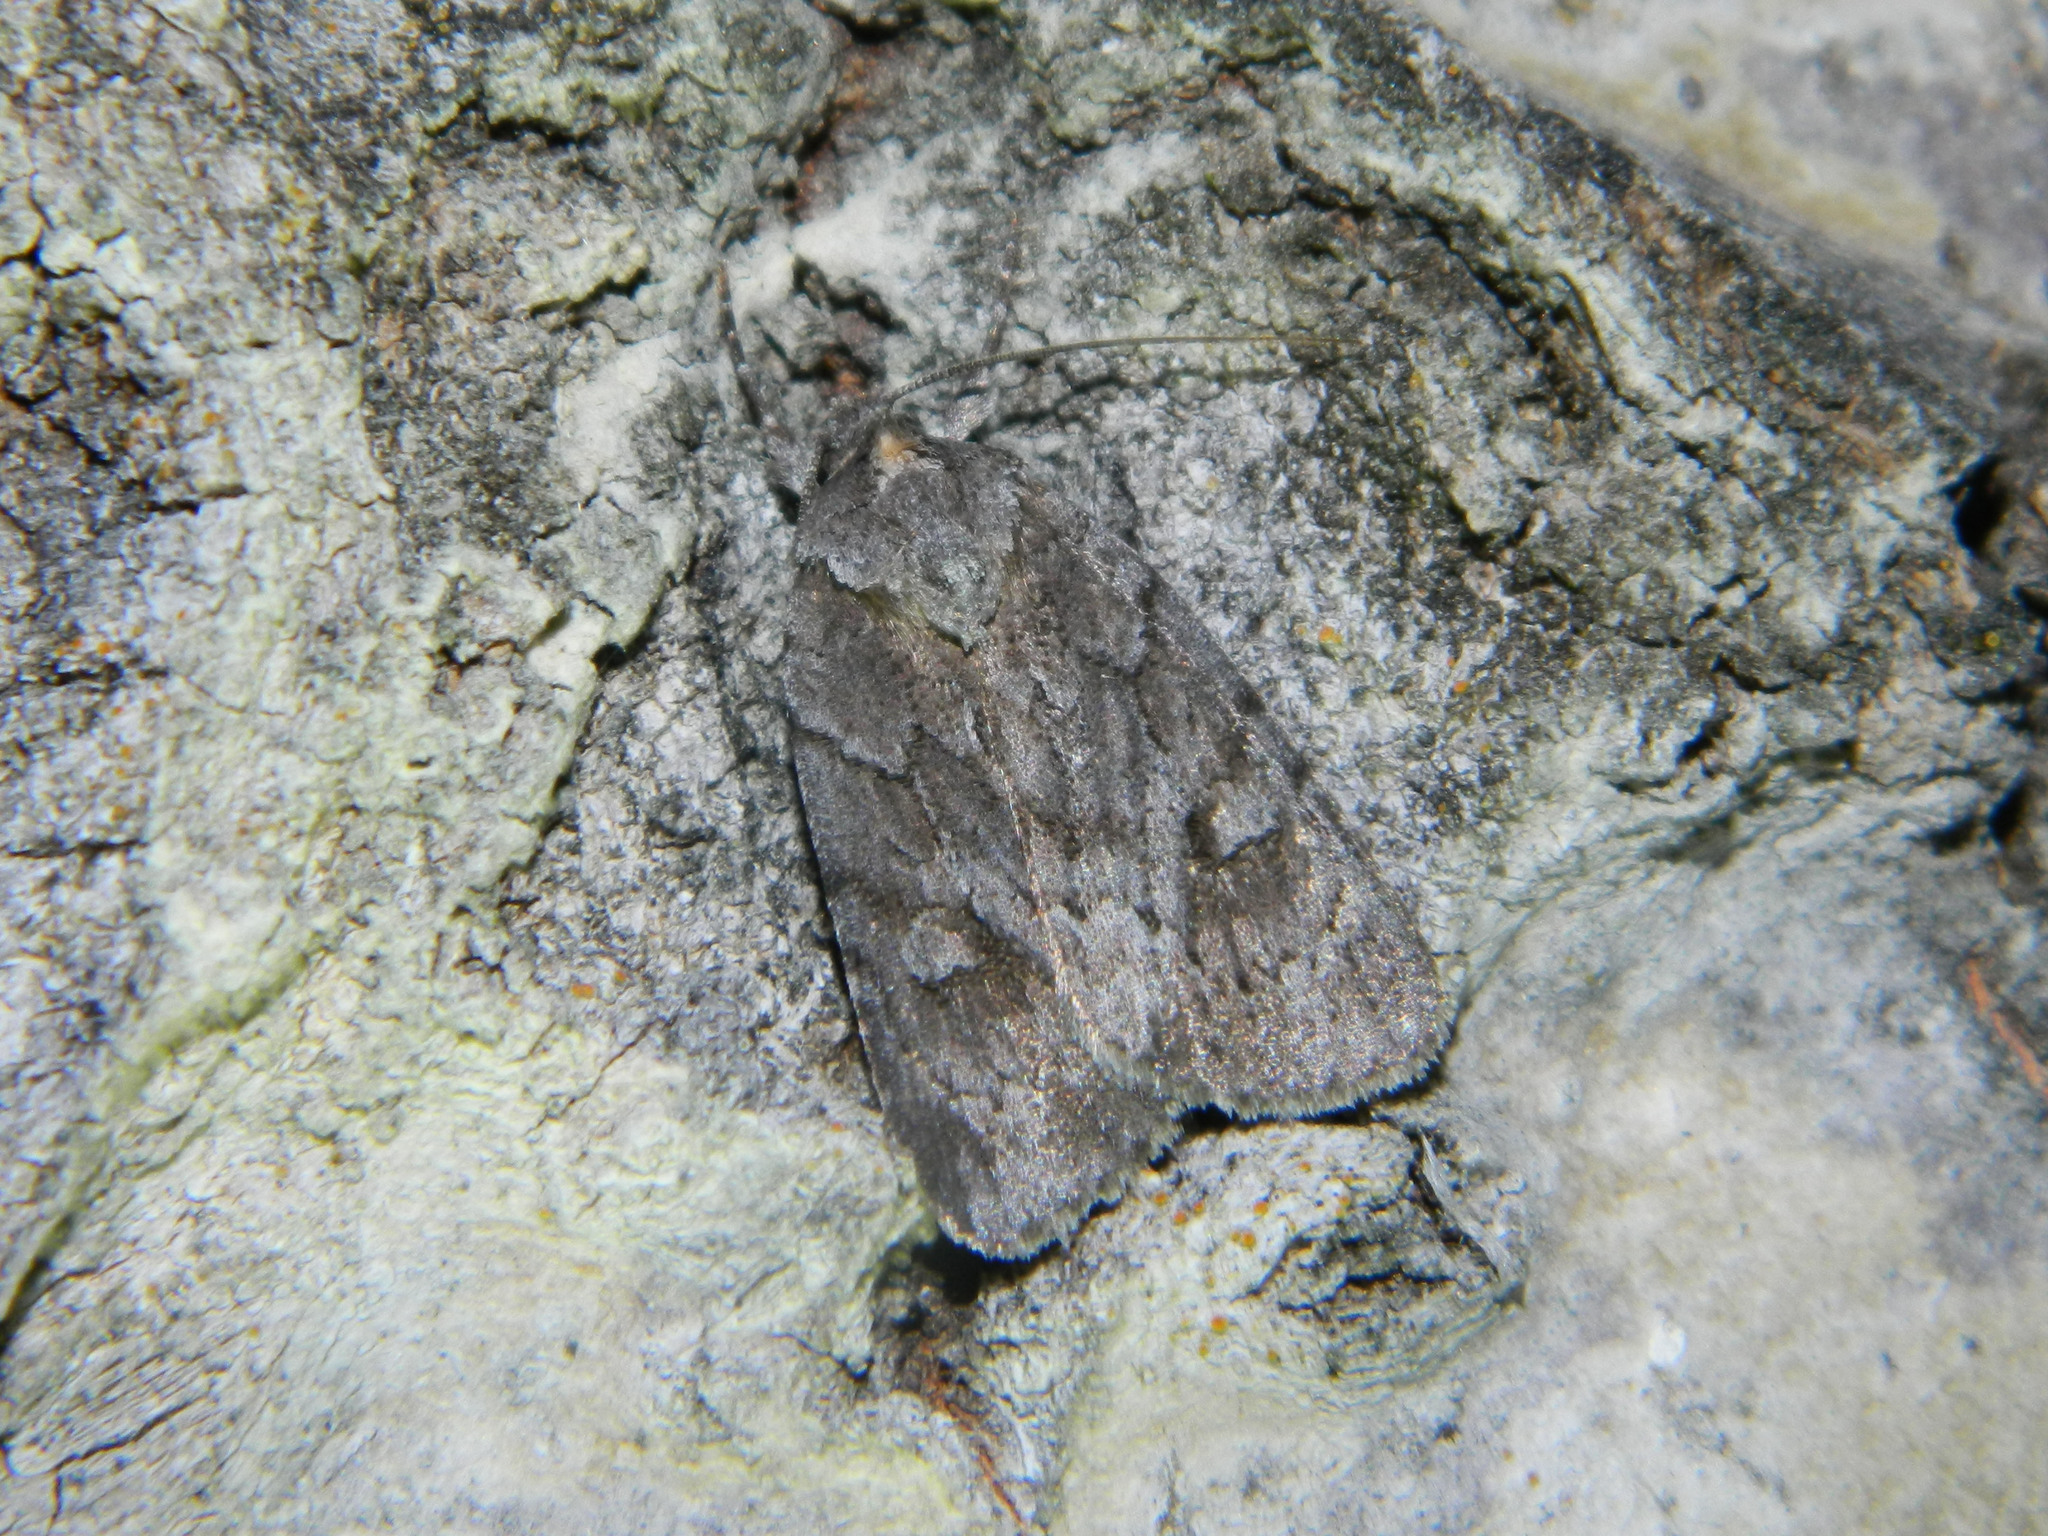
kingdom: Animalia
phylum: Arthropoda
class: Insecta
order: Lepidoptera
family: Noctuidae
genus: Sympistis
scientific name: Sympistis dentata
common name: Blueberry sallow
